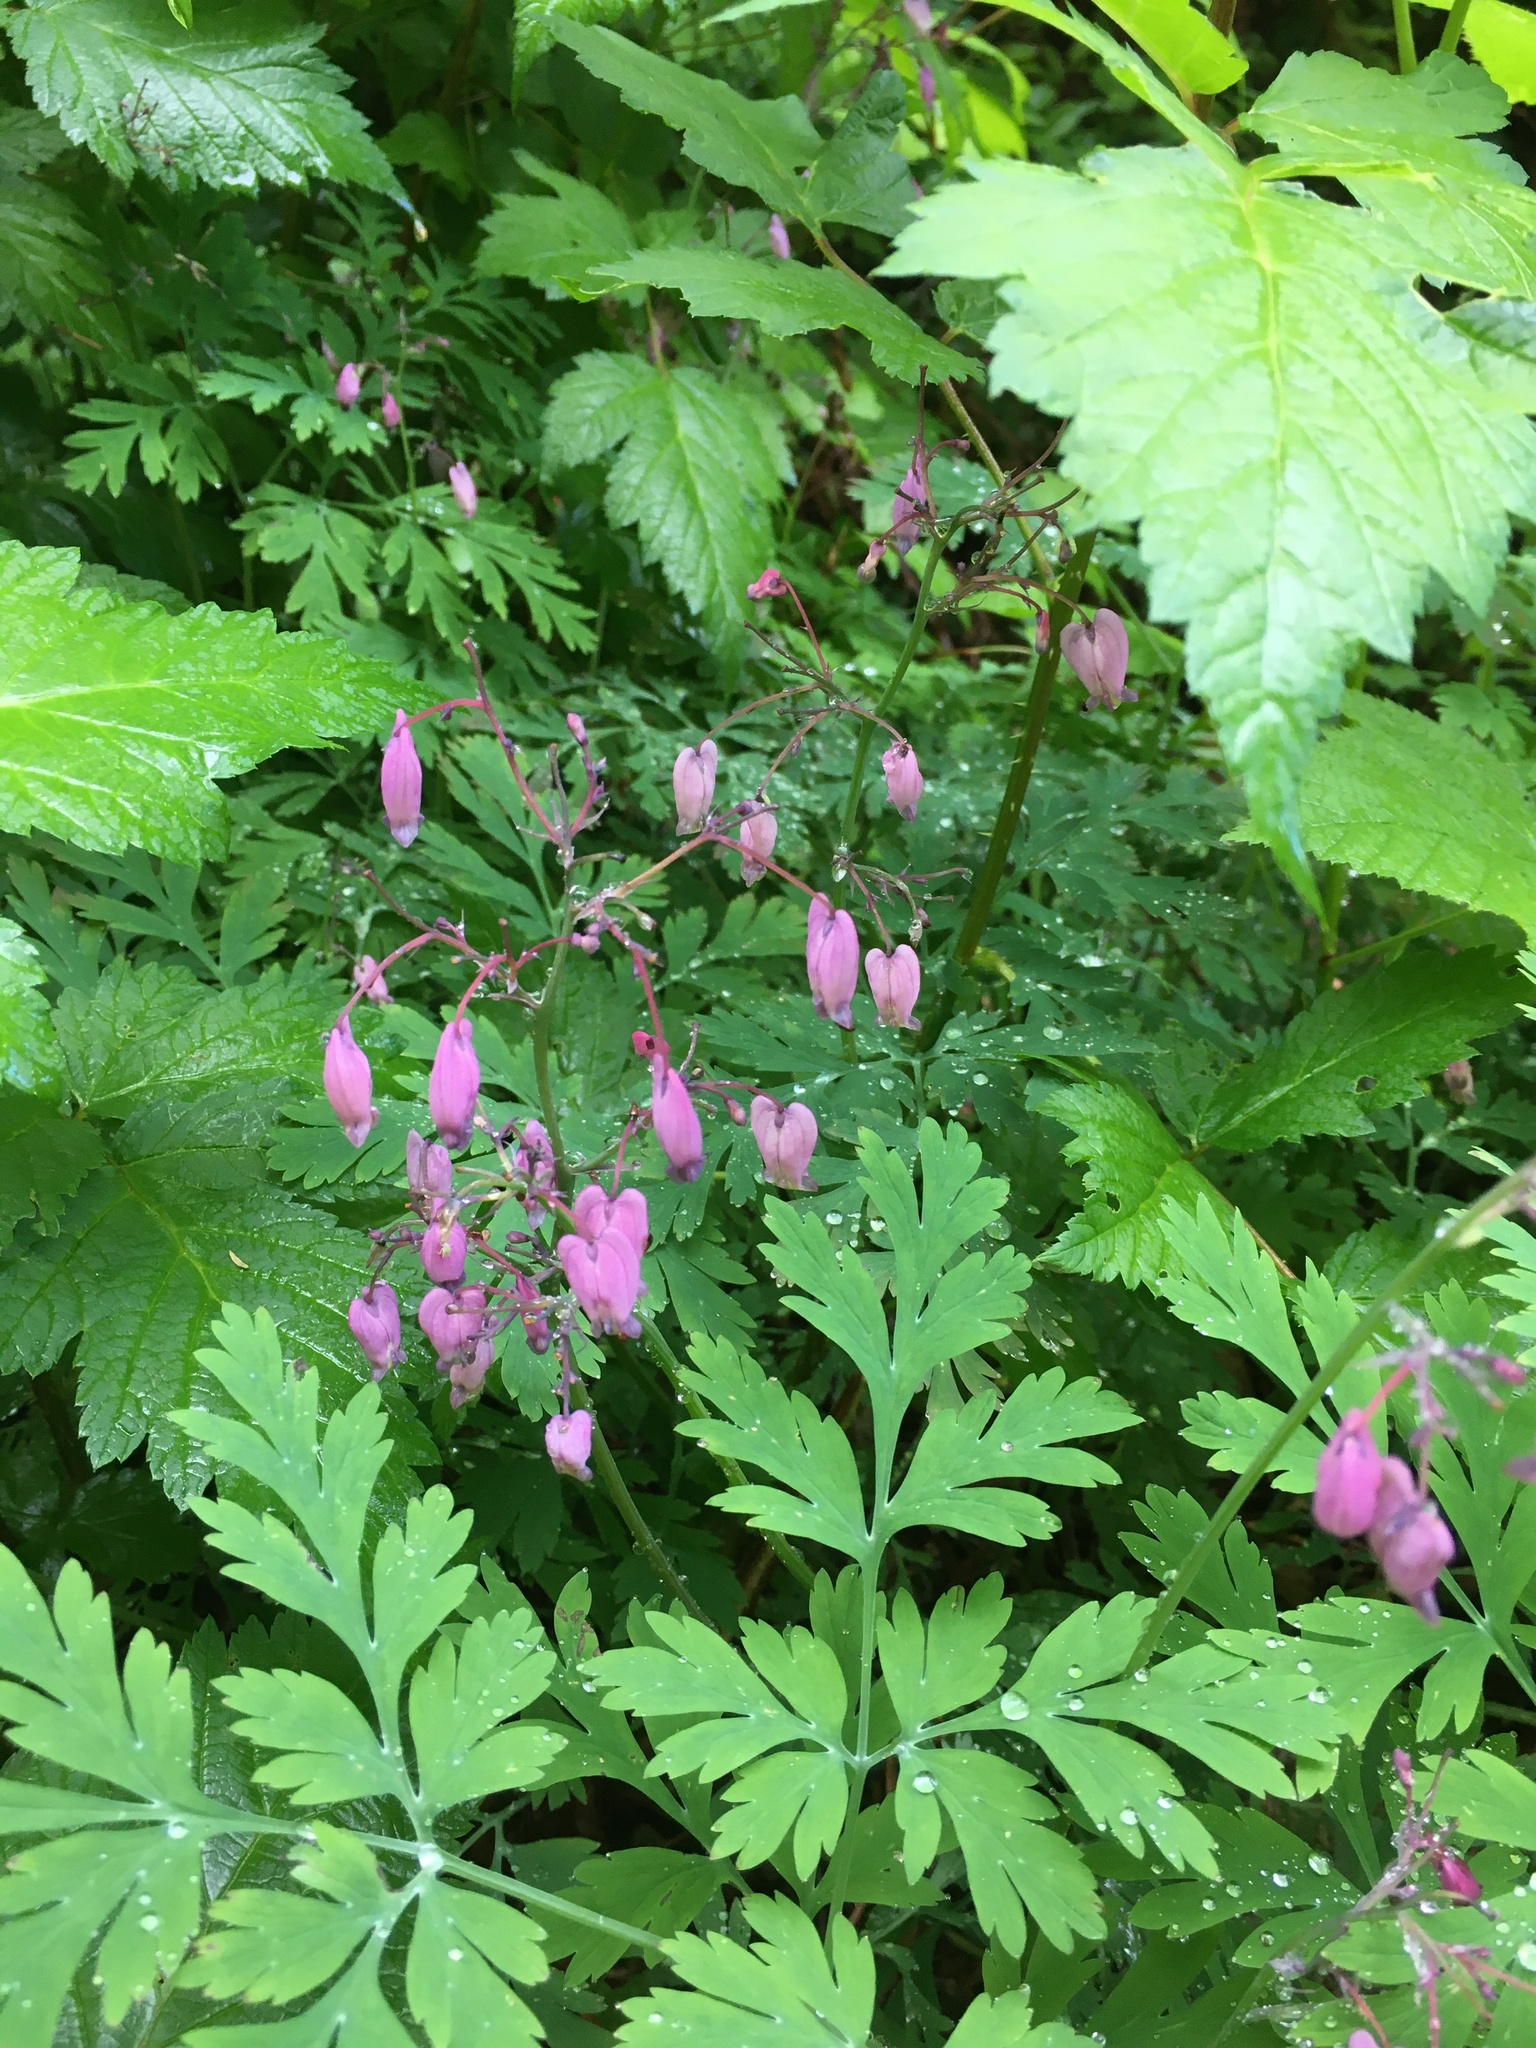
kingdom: Plantae
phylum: Tracheophyta
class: Magnoliopsida
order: Ranunculales
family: Papaveraceae
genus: Dicentra
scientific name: Dicentra formosa
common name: Bleeding-heart
